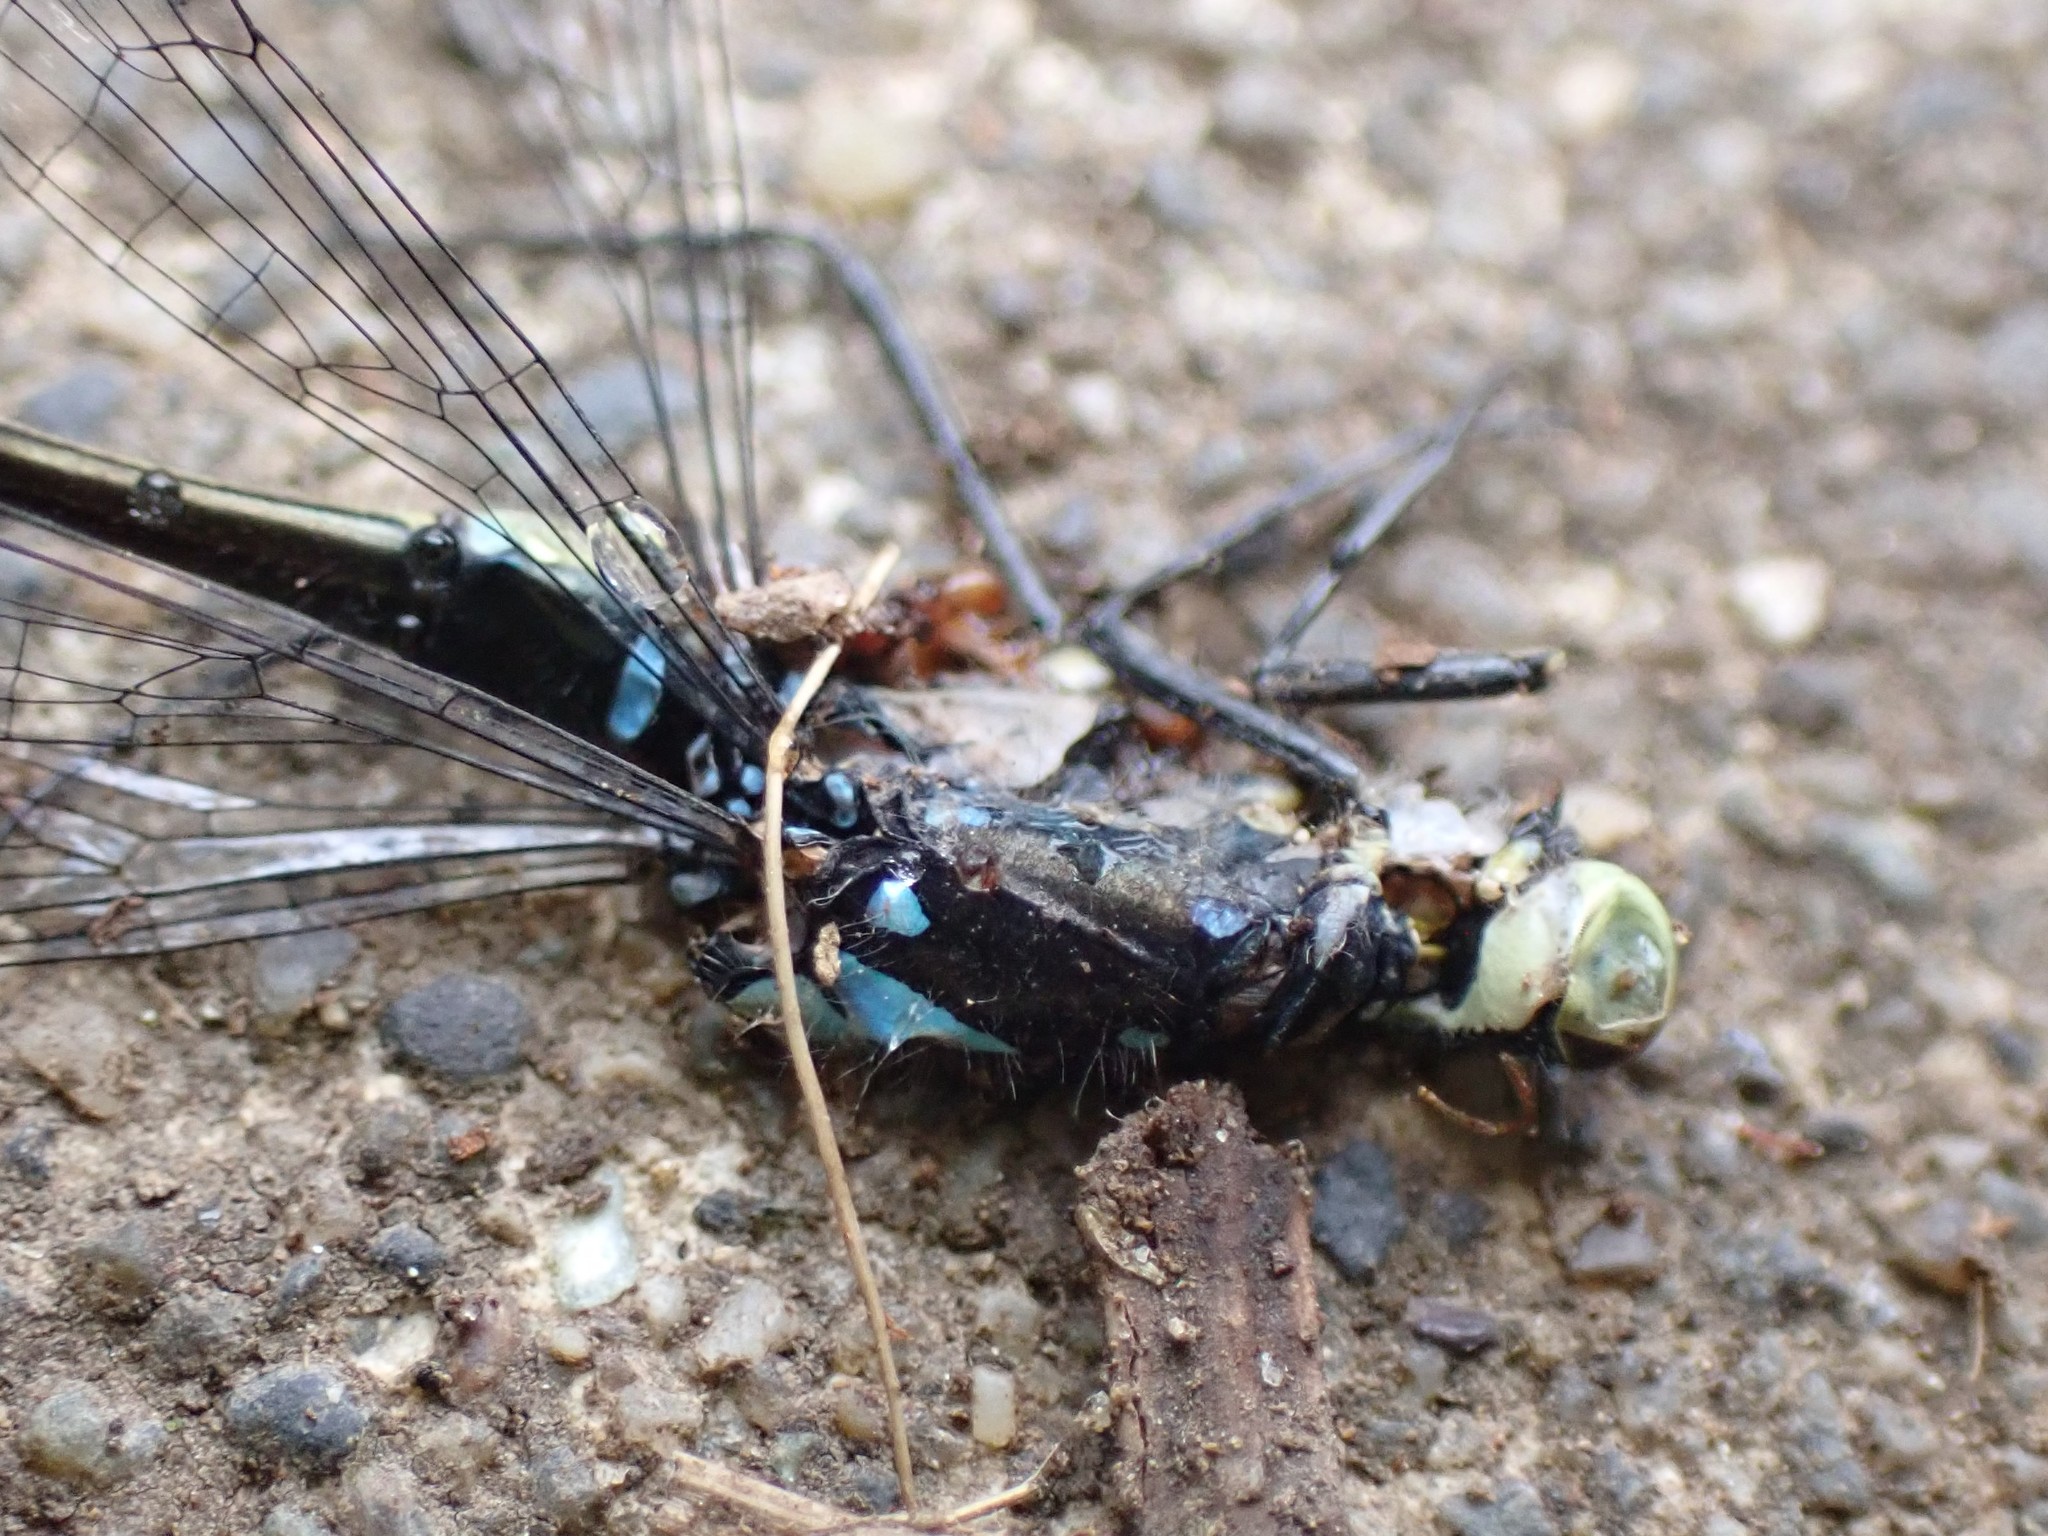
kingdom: Animalia
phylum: Arthropoda
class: Insecta
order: Odonata
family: Coenagrionidae
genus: Ischnura
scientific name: Ischnura cervula
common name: Pacific forktail
